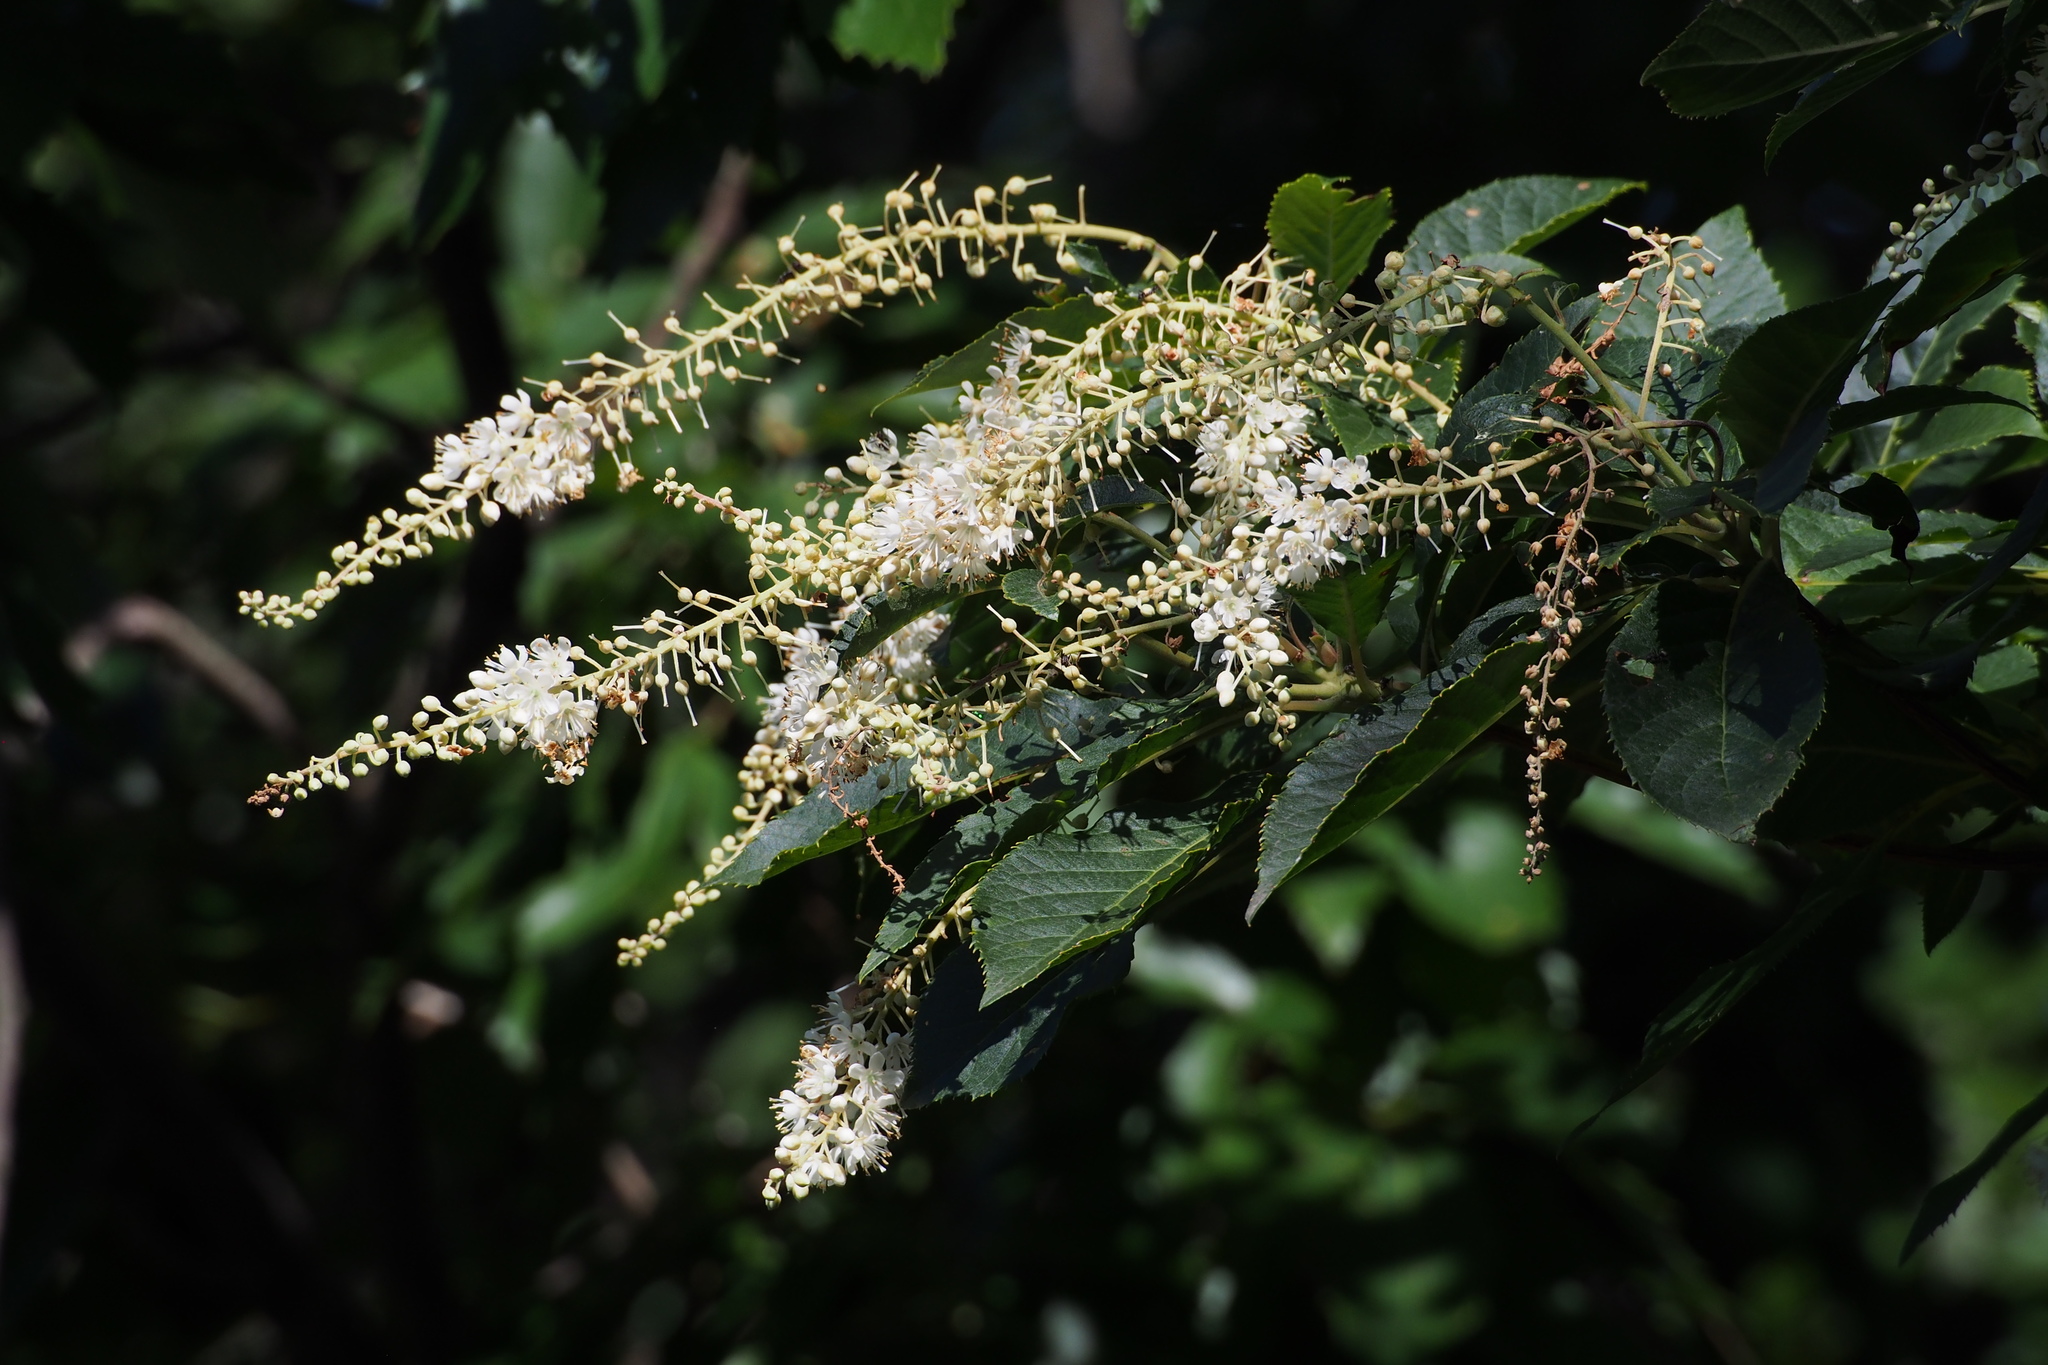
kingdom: Plantae
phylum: Tracheophyta
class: Magnoliopsida
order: Ericales
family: Clethraceae
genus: Clethra
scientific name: Clethra barbinervis
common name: Japanese clethra
